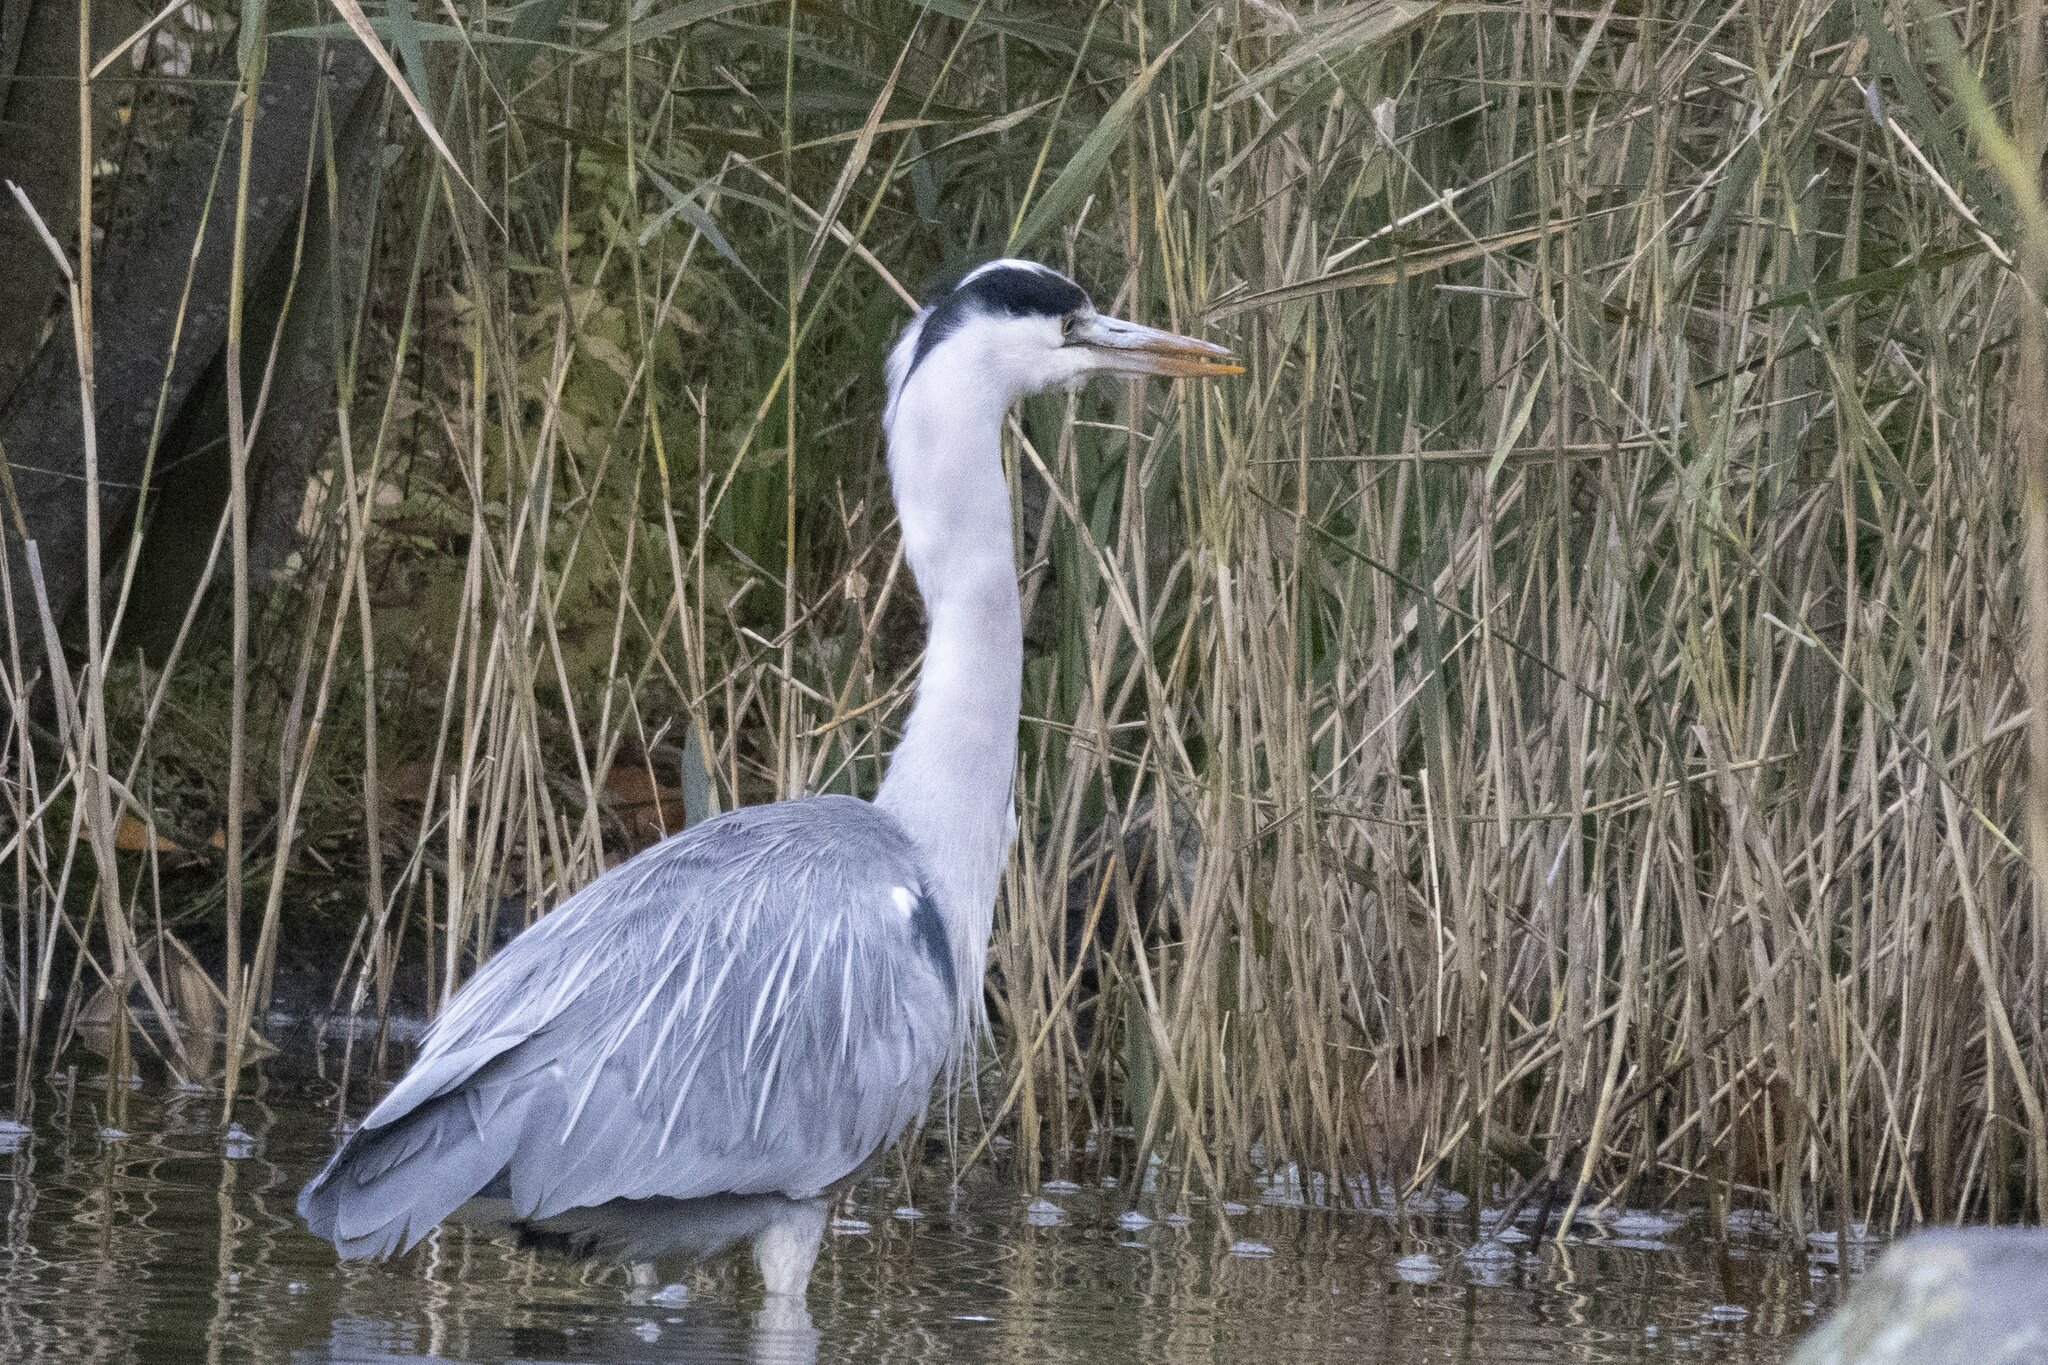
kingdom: Animalia
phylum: Chordata
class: Aves
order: Pelecaniformes
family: Ardeidae
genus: Ardea
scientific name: Ardea cinerea
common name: Grey heron
